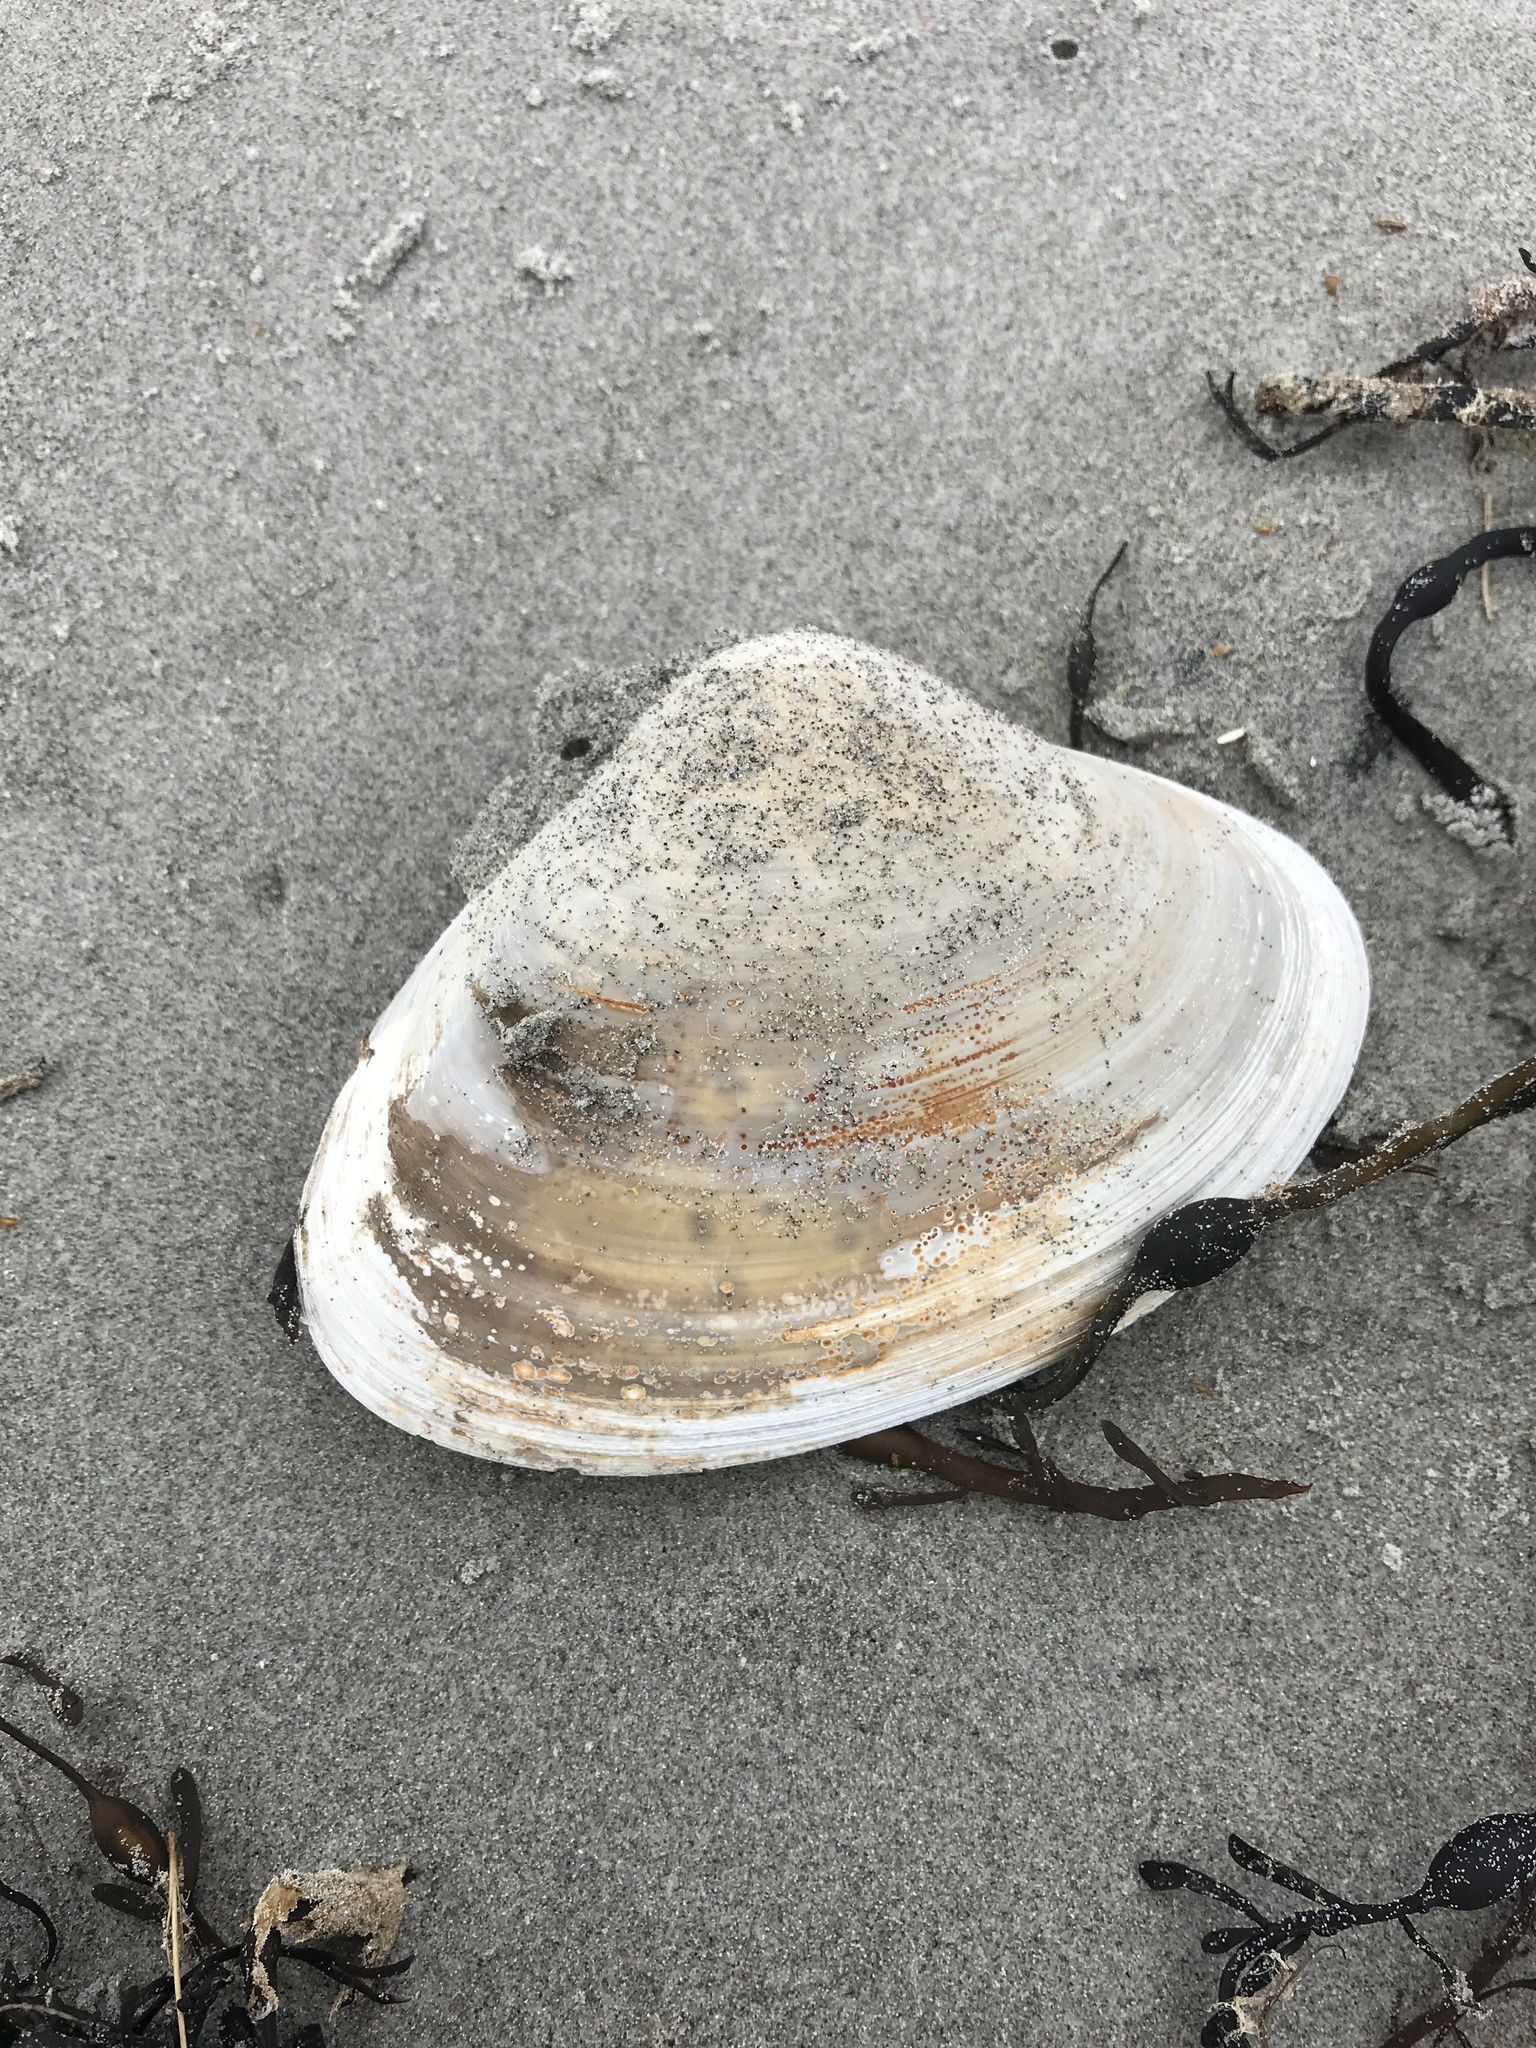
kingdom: Animalia
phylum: Mollusca
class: Bivalvia
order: Venerida
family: Mactridae
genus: Spisula
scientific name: Spisula solidissima
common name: Atlantic surf clam
